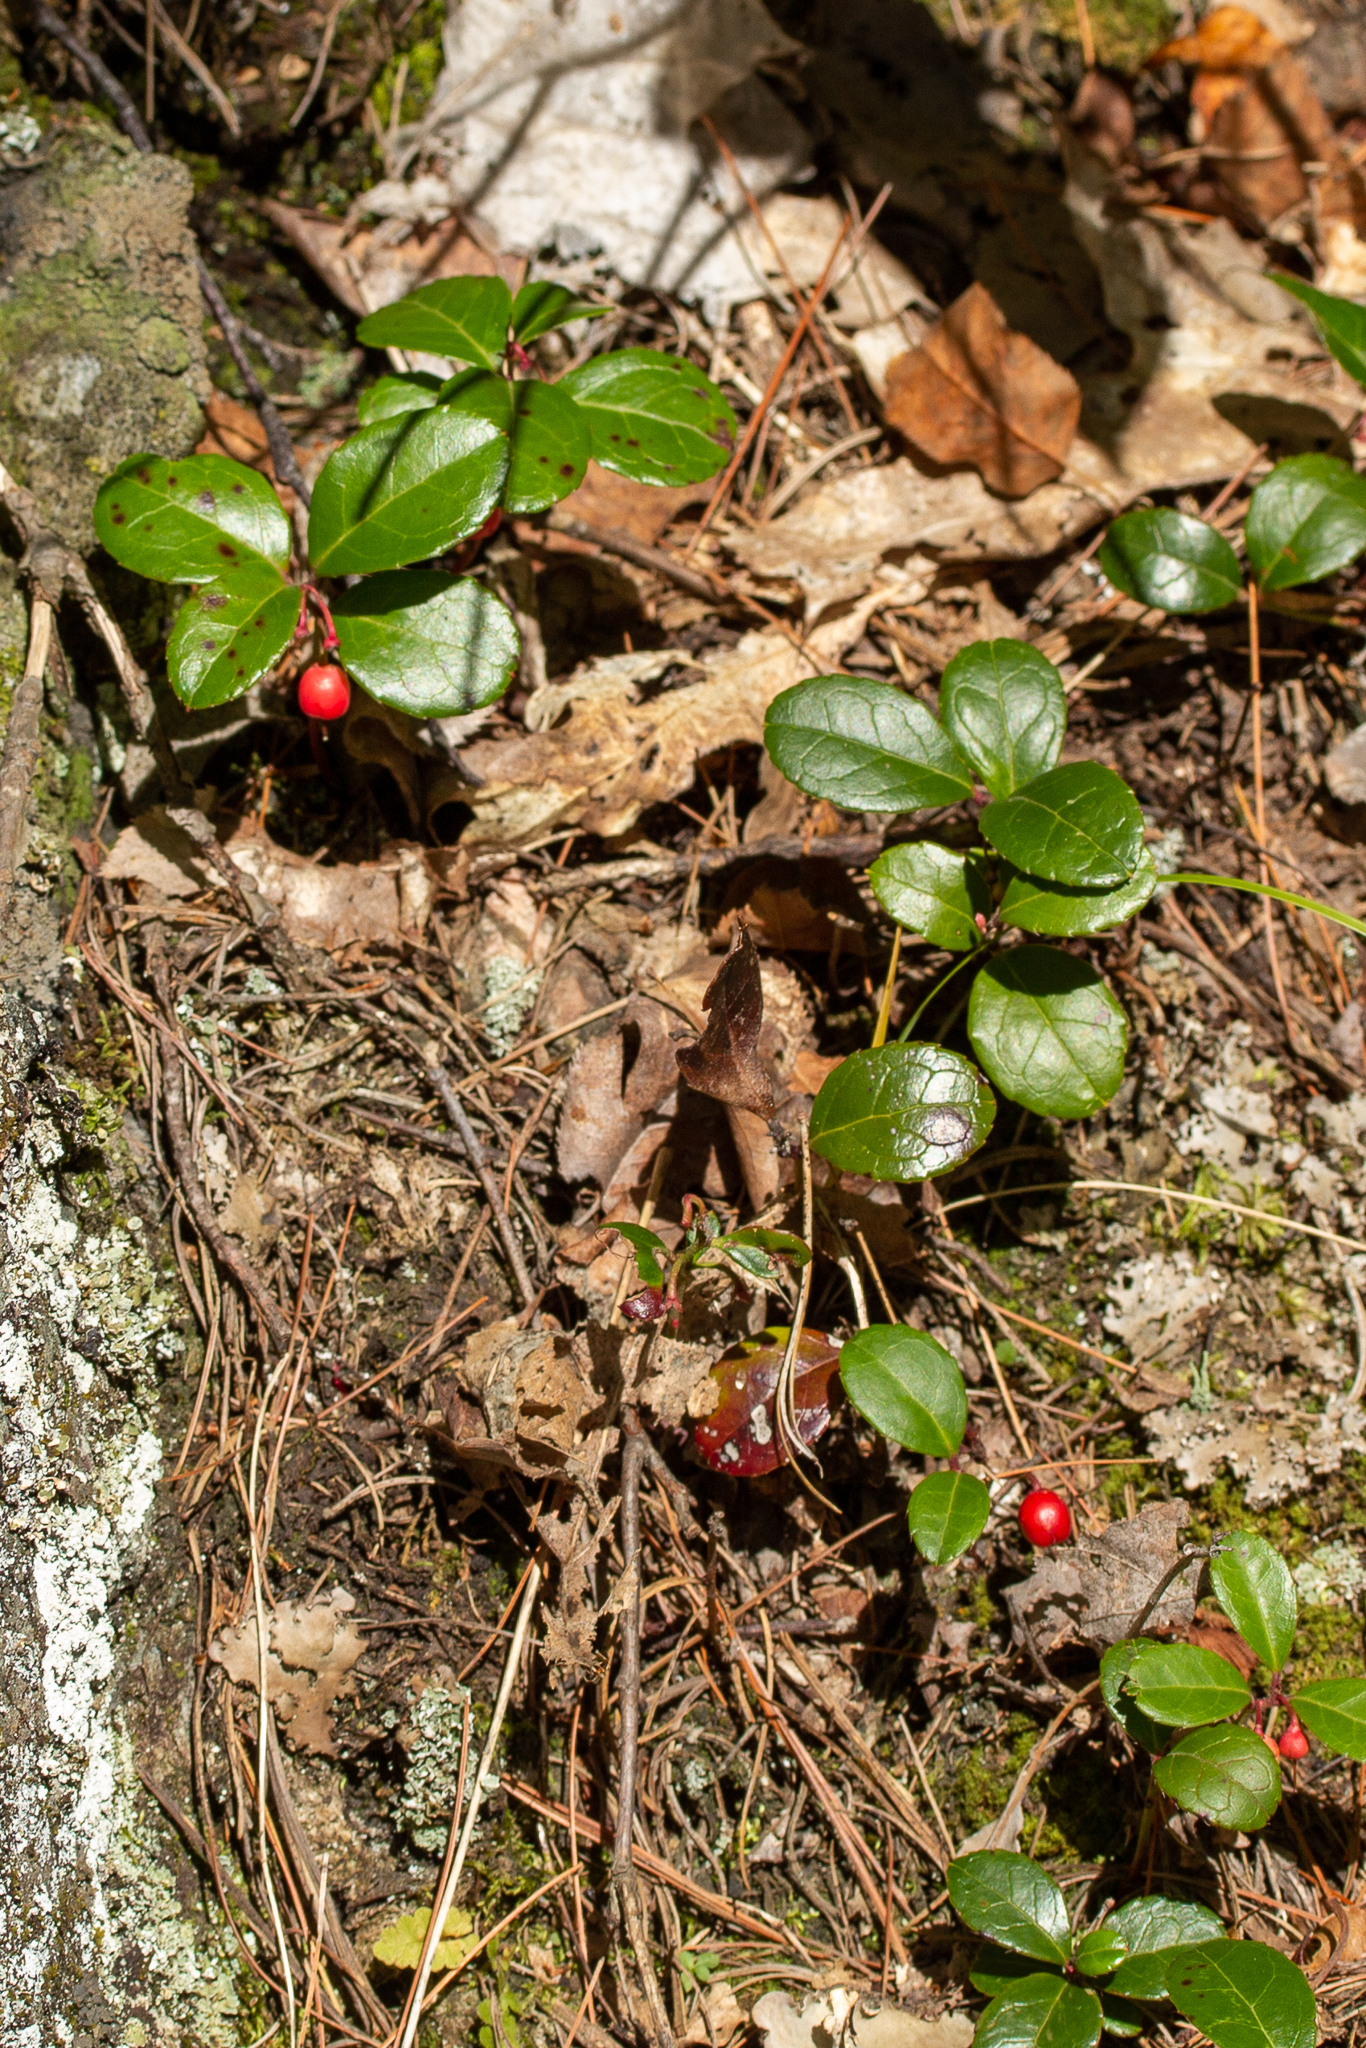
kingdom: Plantae
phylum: Tracheophyta
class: Magnoliopsida
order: Ericales
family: Ericaceae
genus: Gaultheria
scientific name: Gaultheria procumbens
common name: Checkerberry
